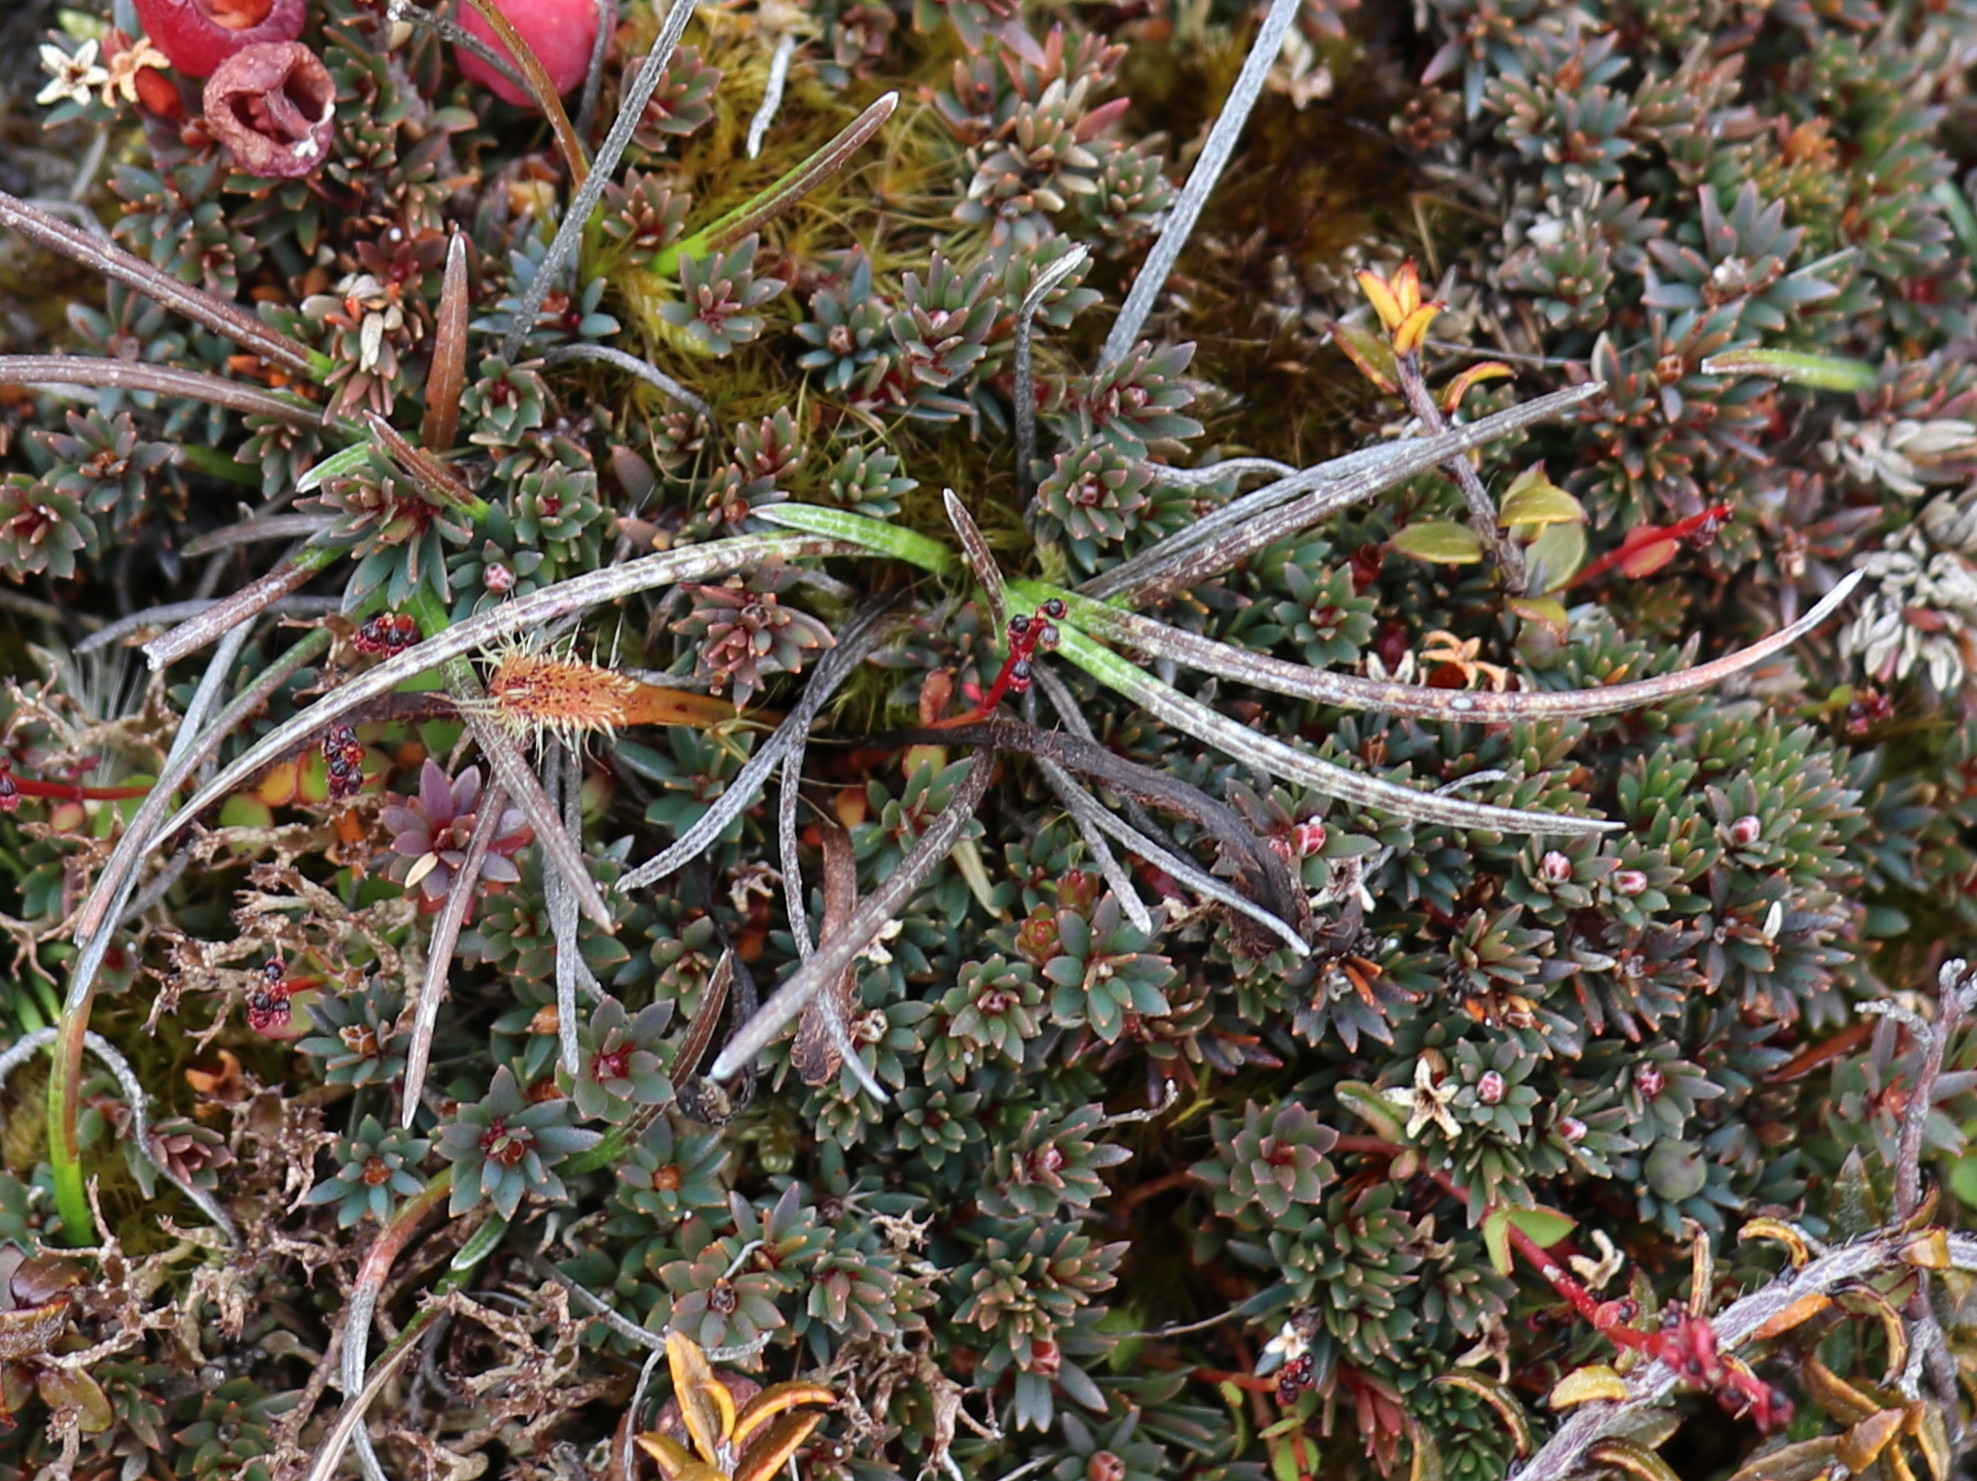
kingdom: Plantae
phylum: Tracheophyta
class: Magnoliopsida
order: Asterales
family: Asteraceae
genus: Celmisia
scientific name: Celmisia gracilenta
